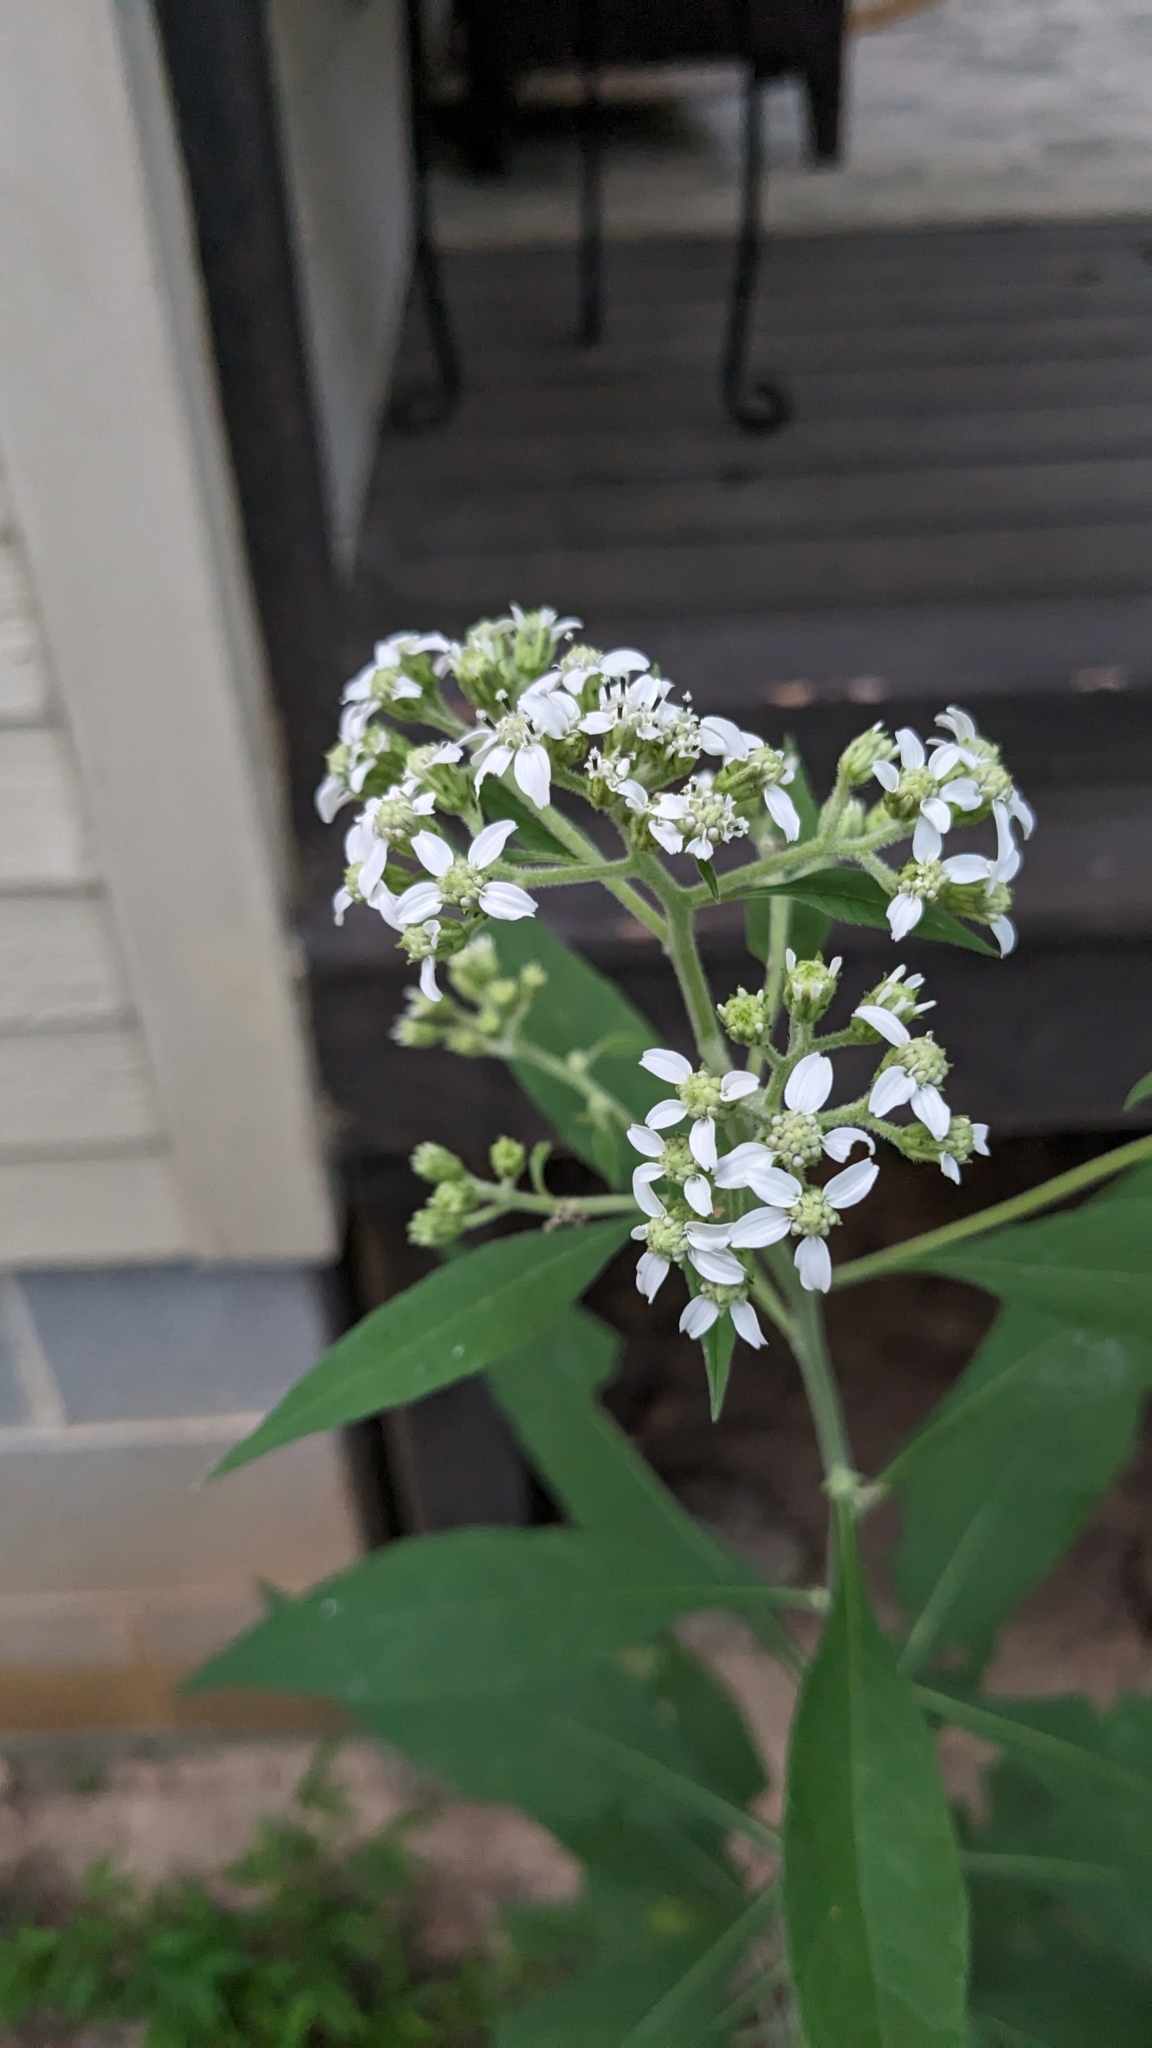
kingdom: Plantae
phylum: Tracheophyta
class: Magnoliopsida
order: Asterales
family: Asteraceae
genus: Verbesina
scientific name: Verbesina virginica
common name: Frostweed
